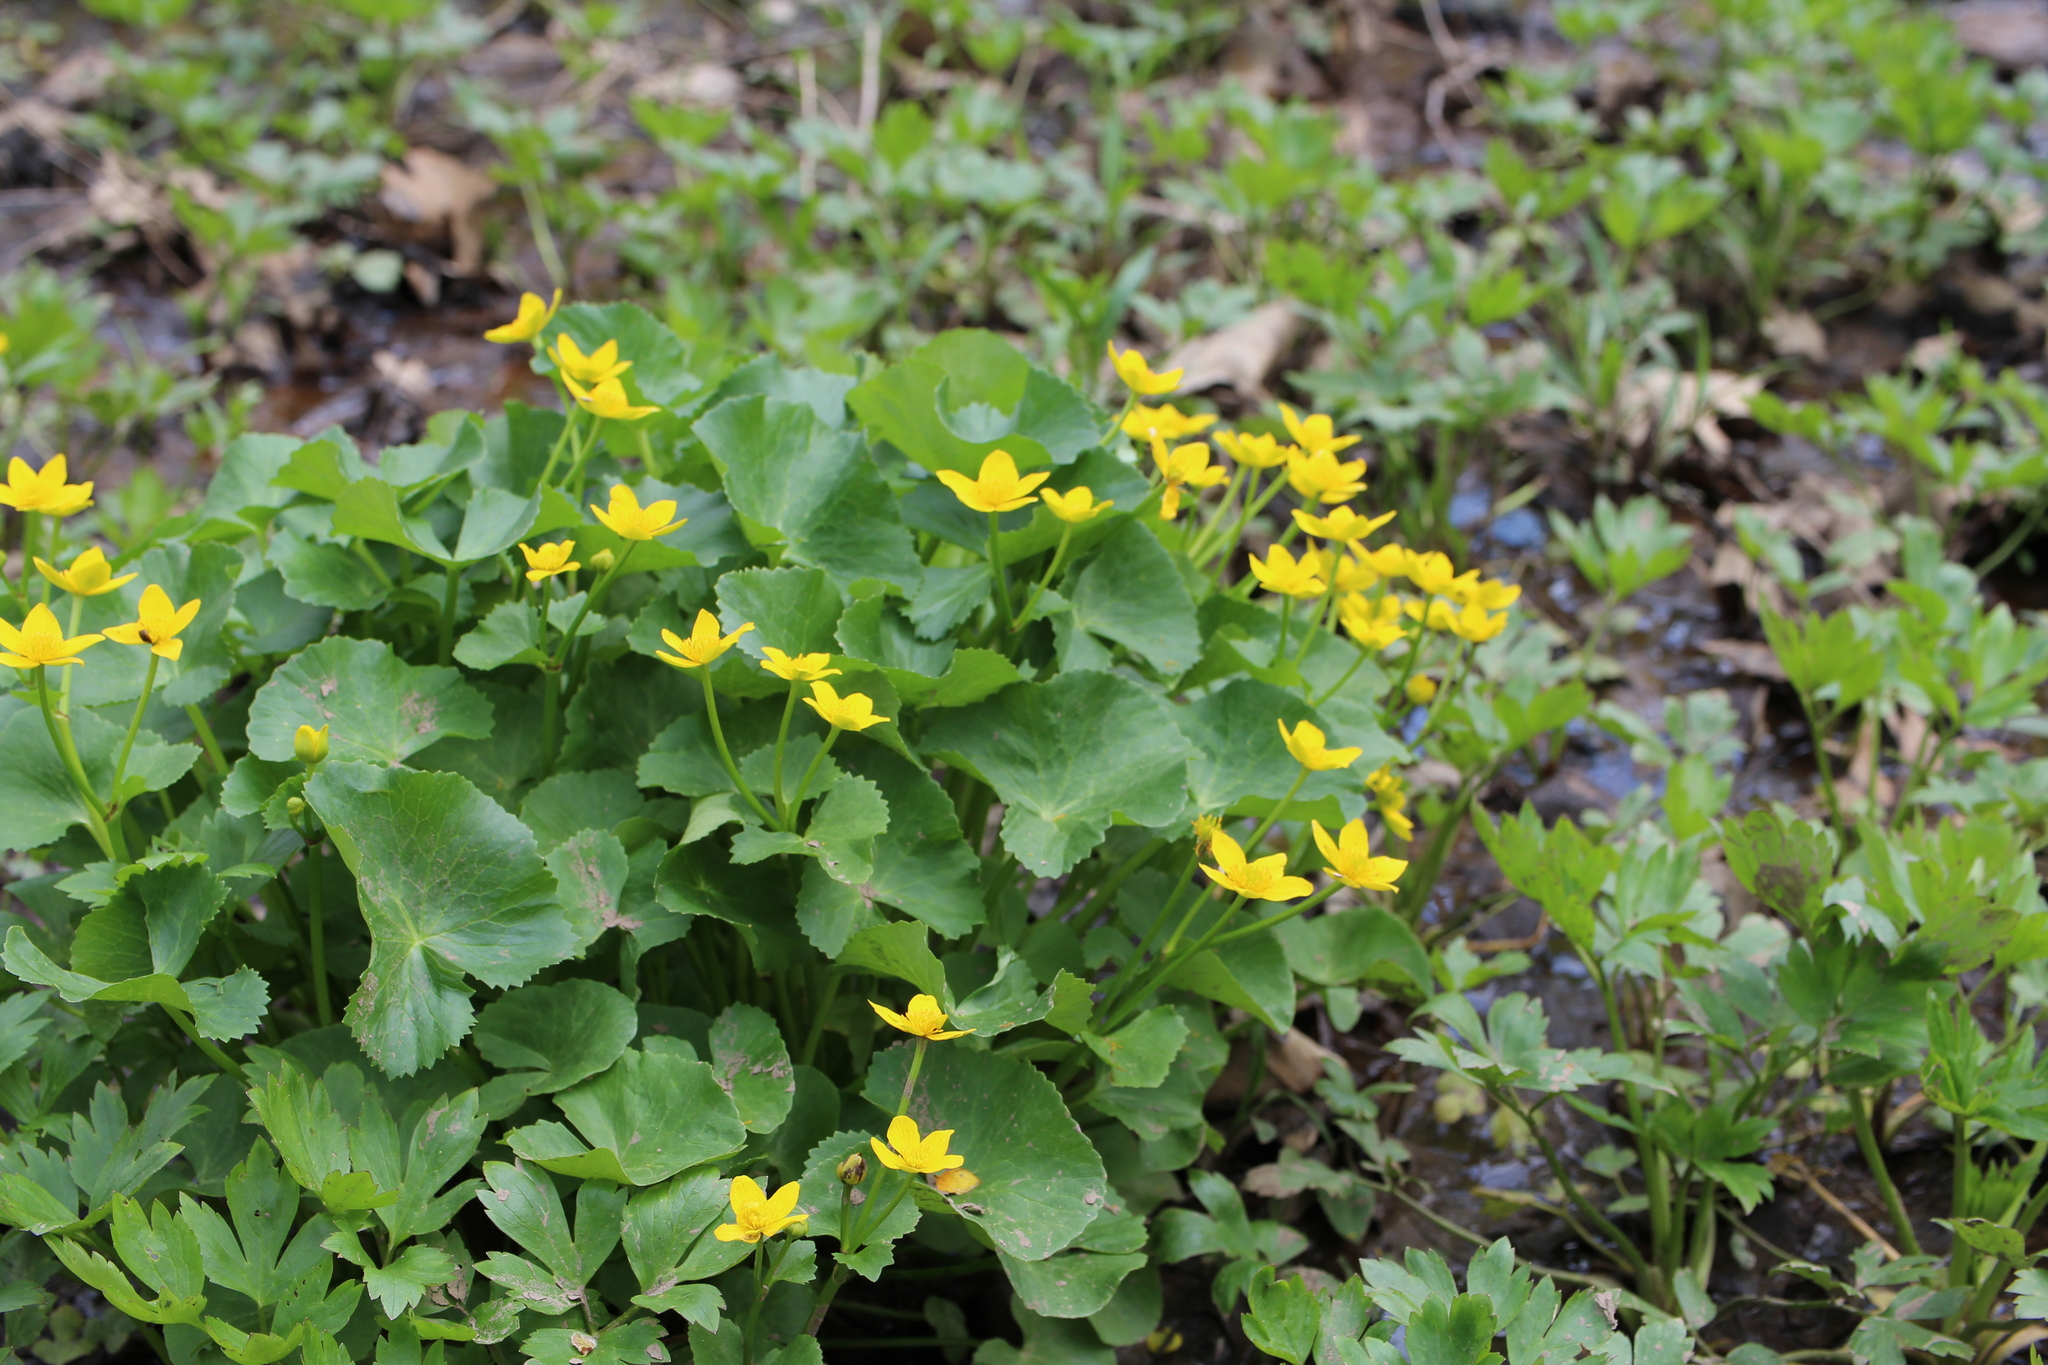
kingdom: Plantae
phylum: Tracheophyta
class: Magnoliopsida
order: Ranunculales
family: Ranunculaceae
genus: Caltha
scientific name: Caltha palustris
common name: Marsh marigold
